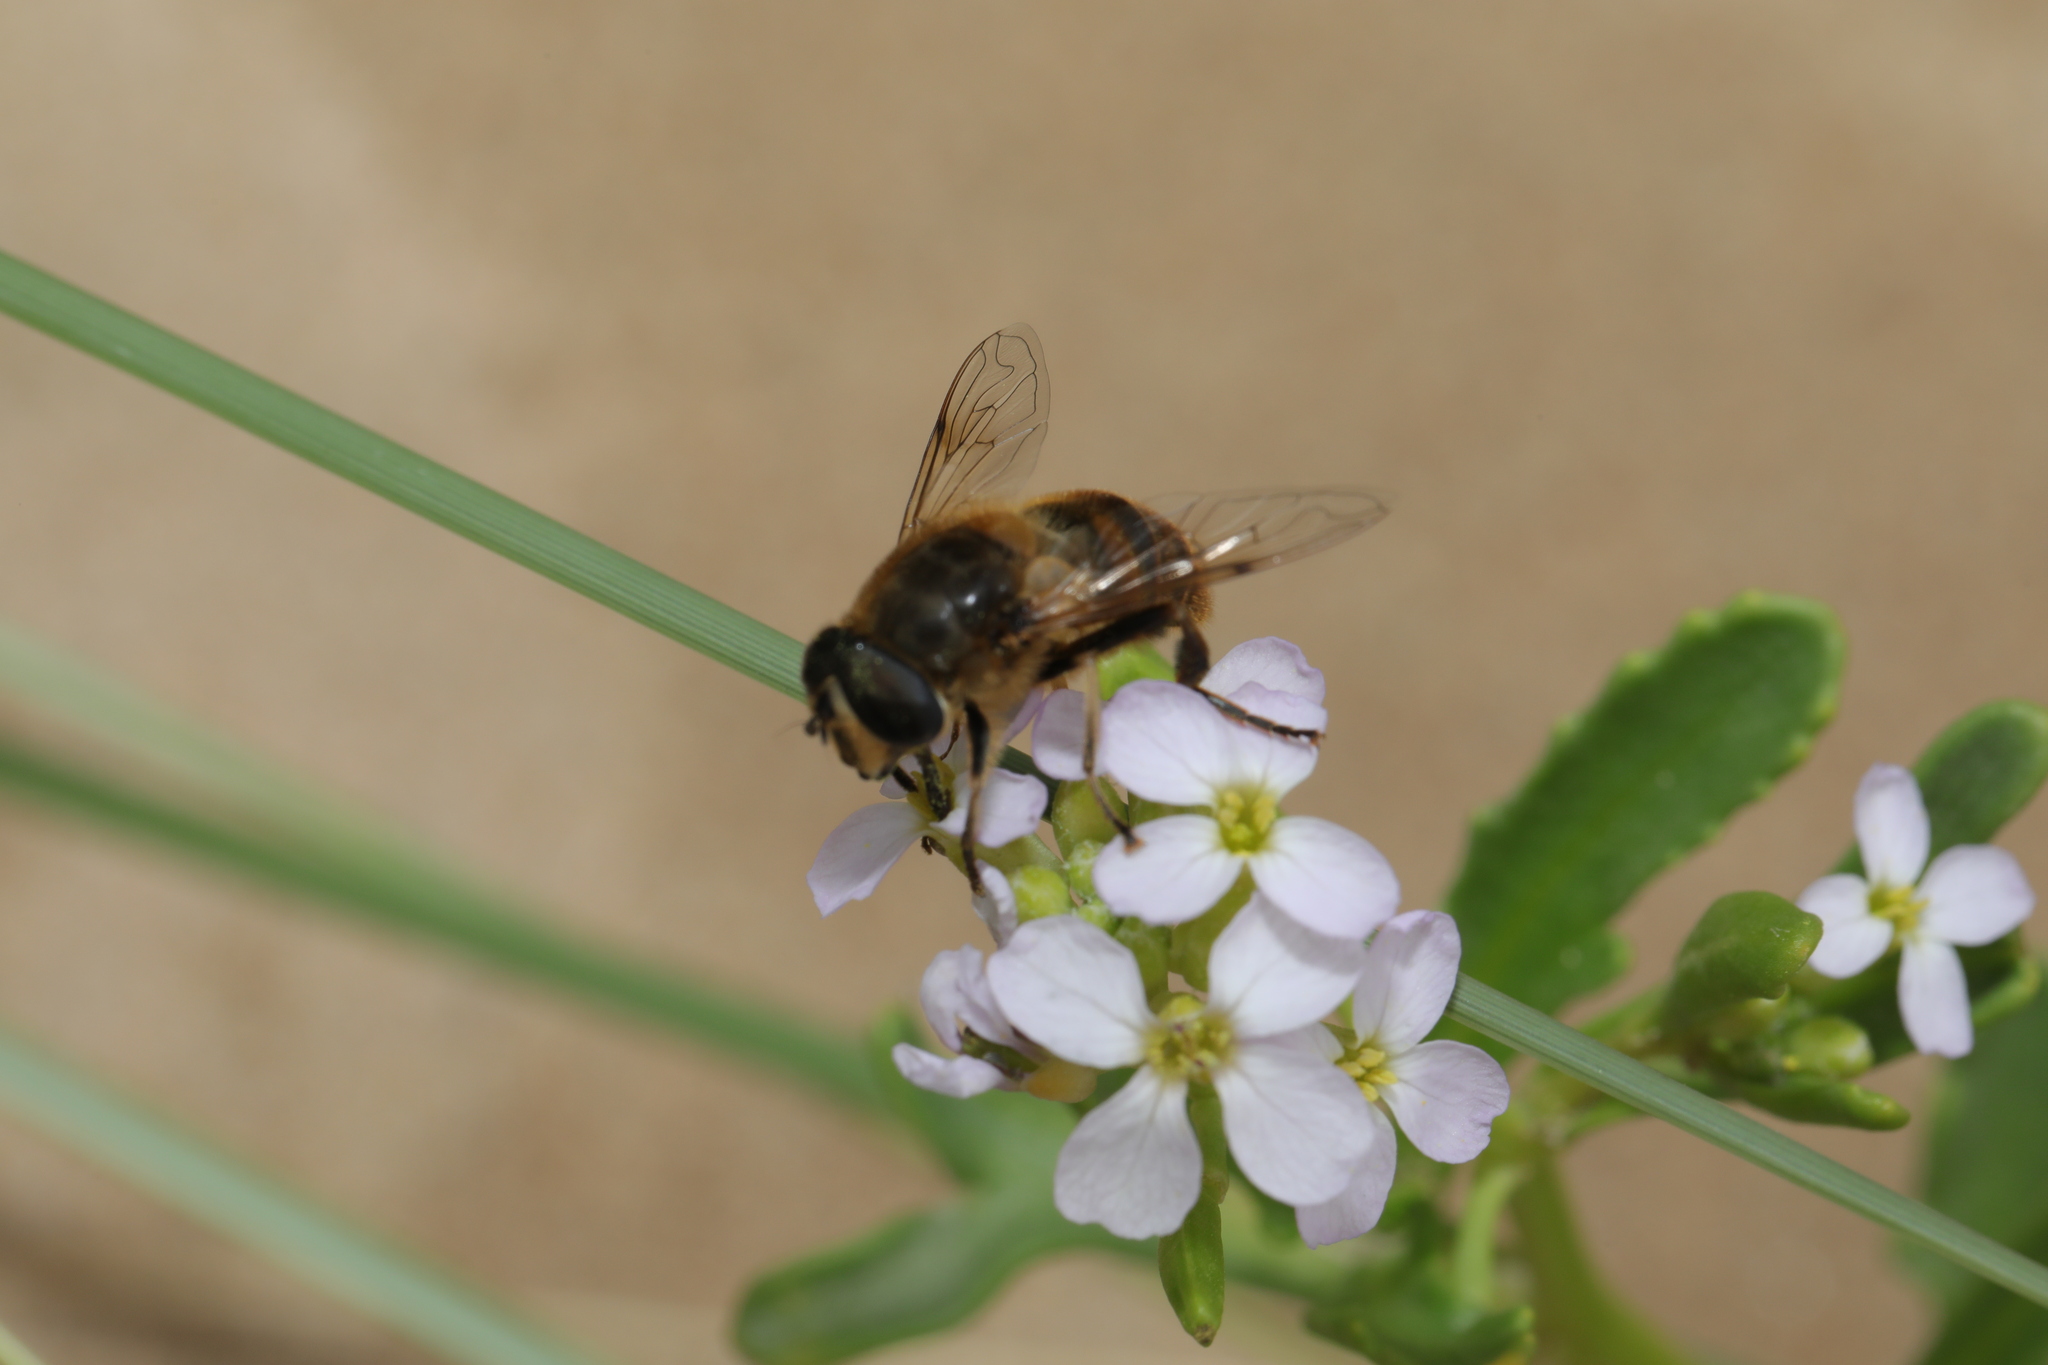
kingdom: Animalia
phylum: Arthropoda
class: Insecta
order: Diptera
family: Syrphidae
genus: Eristalis
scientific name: Eristalis tenax
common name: Drone fly
